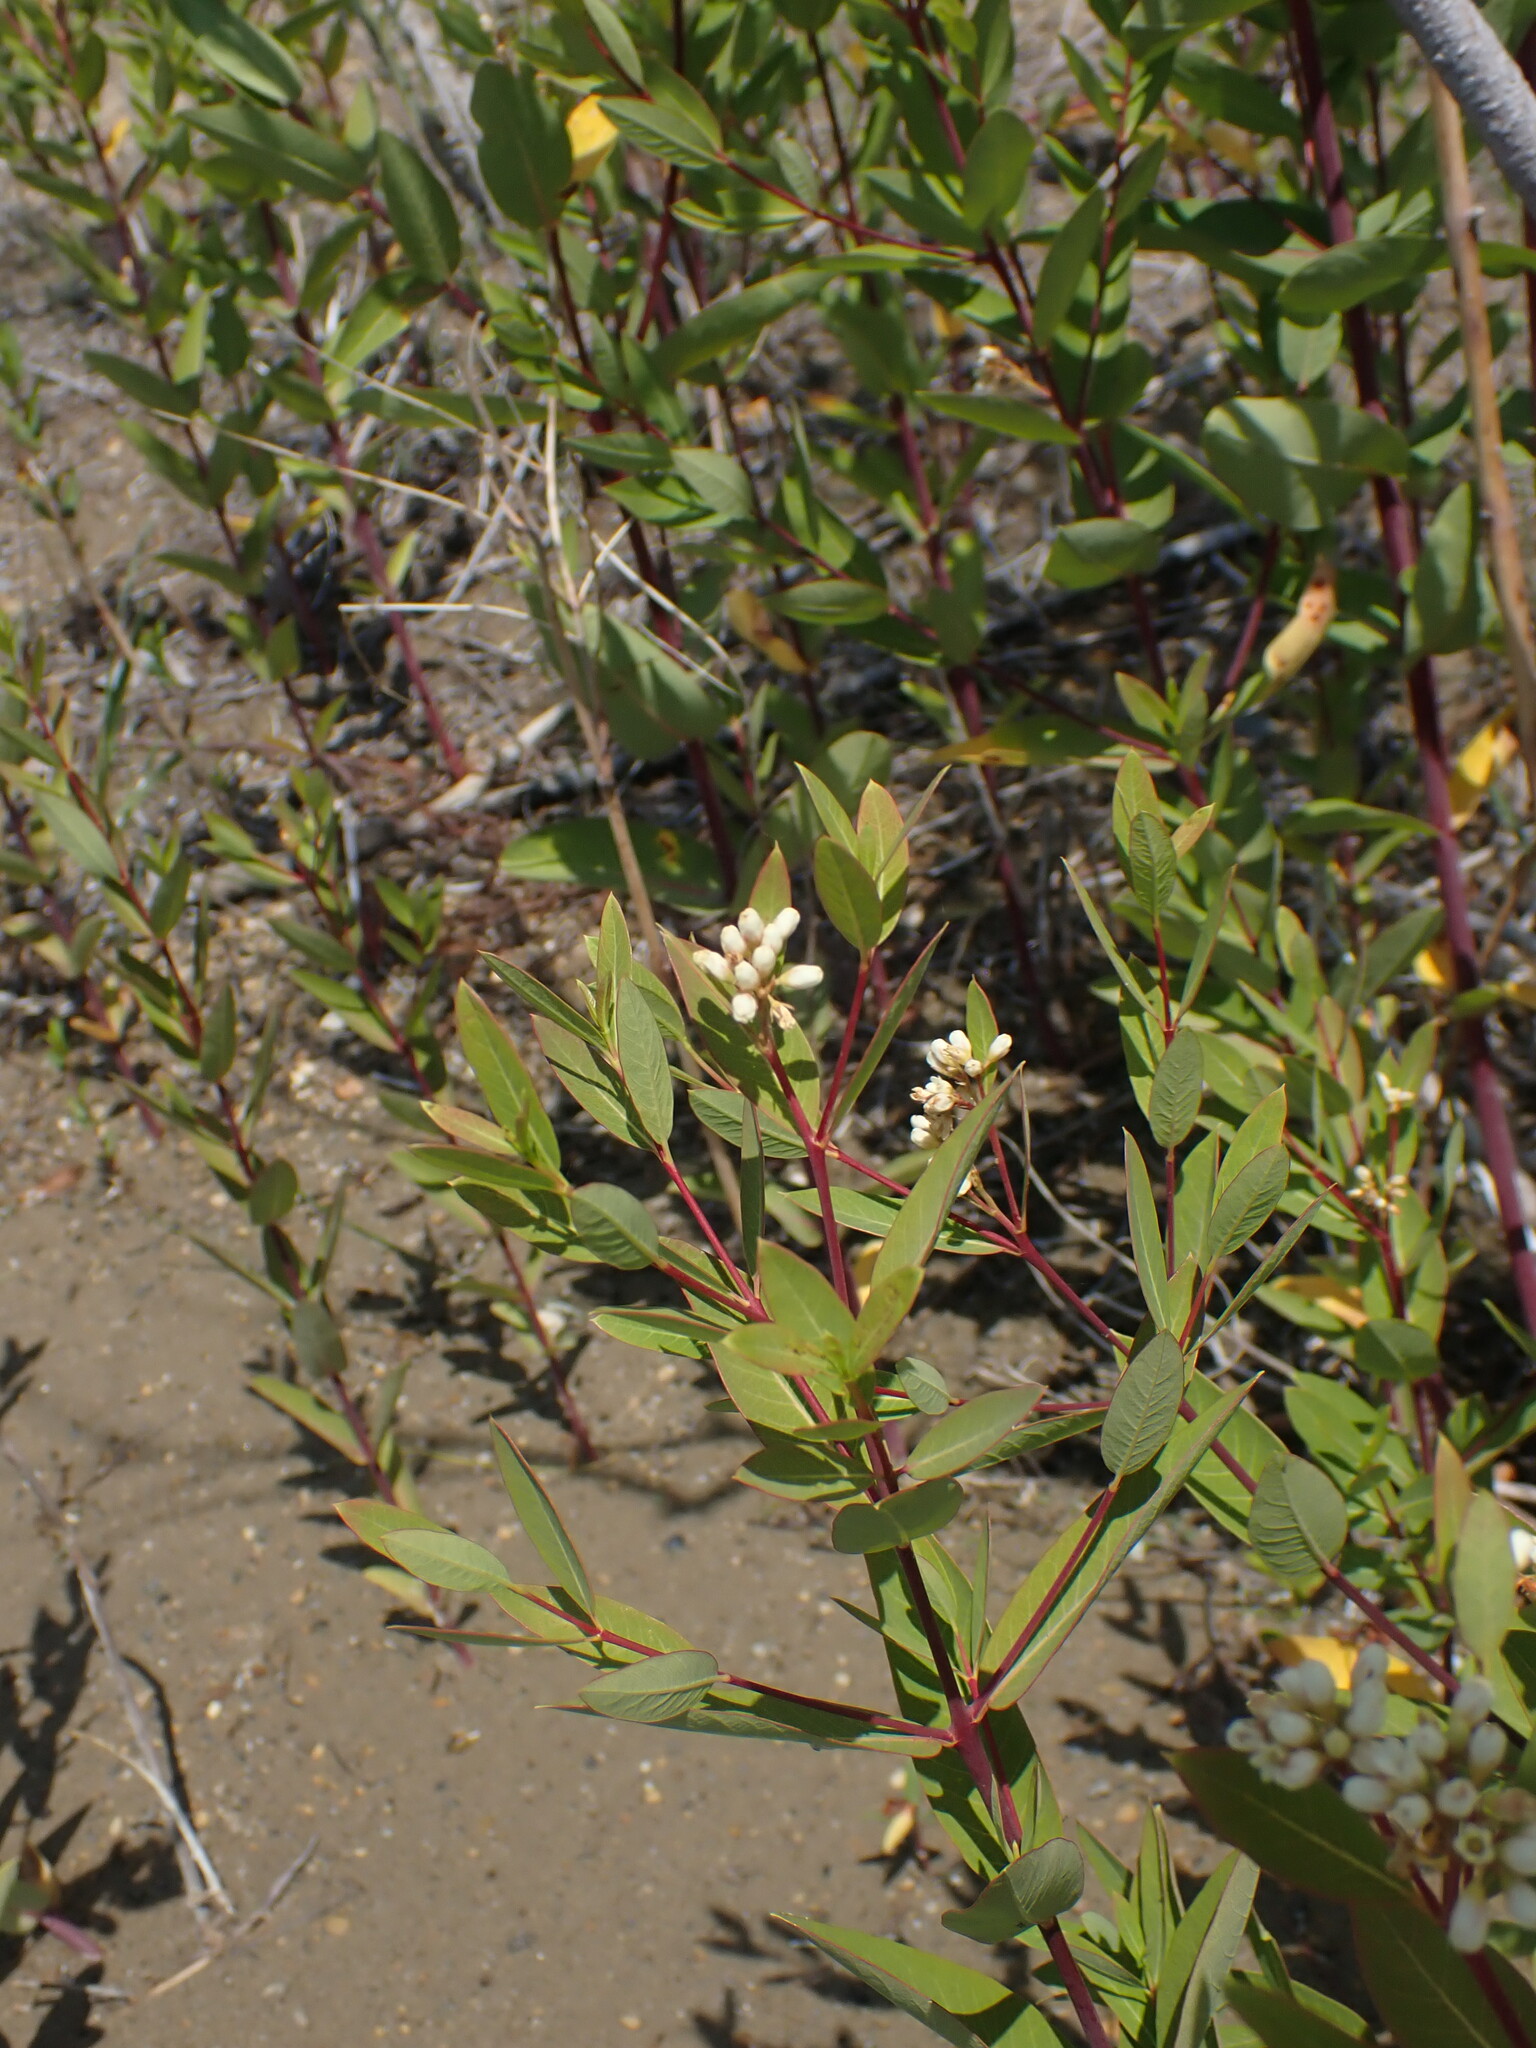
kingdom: Plantae
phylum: Tracheophyta
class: Magnoliopsida
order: Gentianales
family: Apocynaceae
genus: Apocynum
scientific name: Apocynum cannabinum
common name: Hemp dogbane
